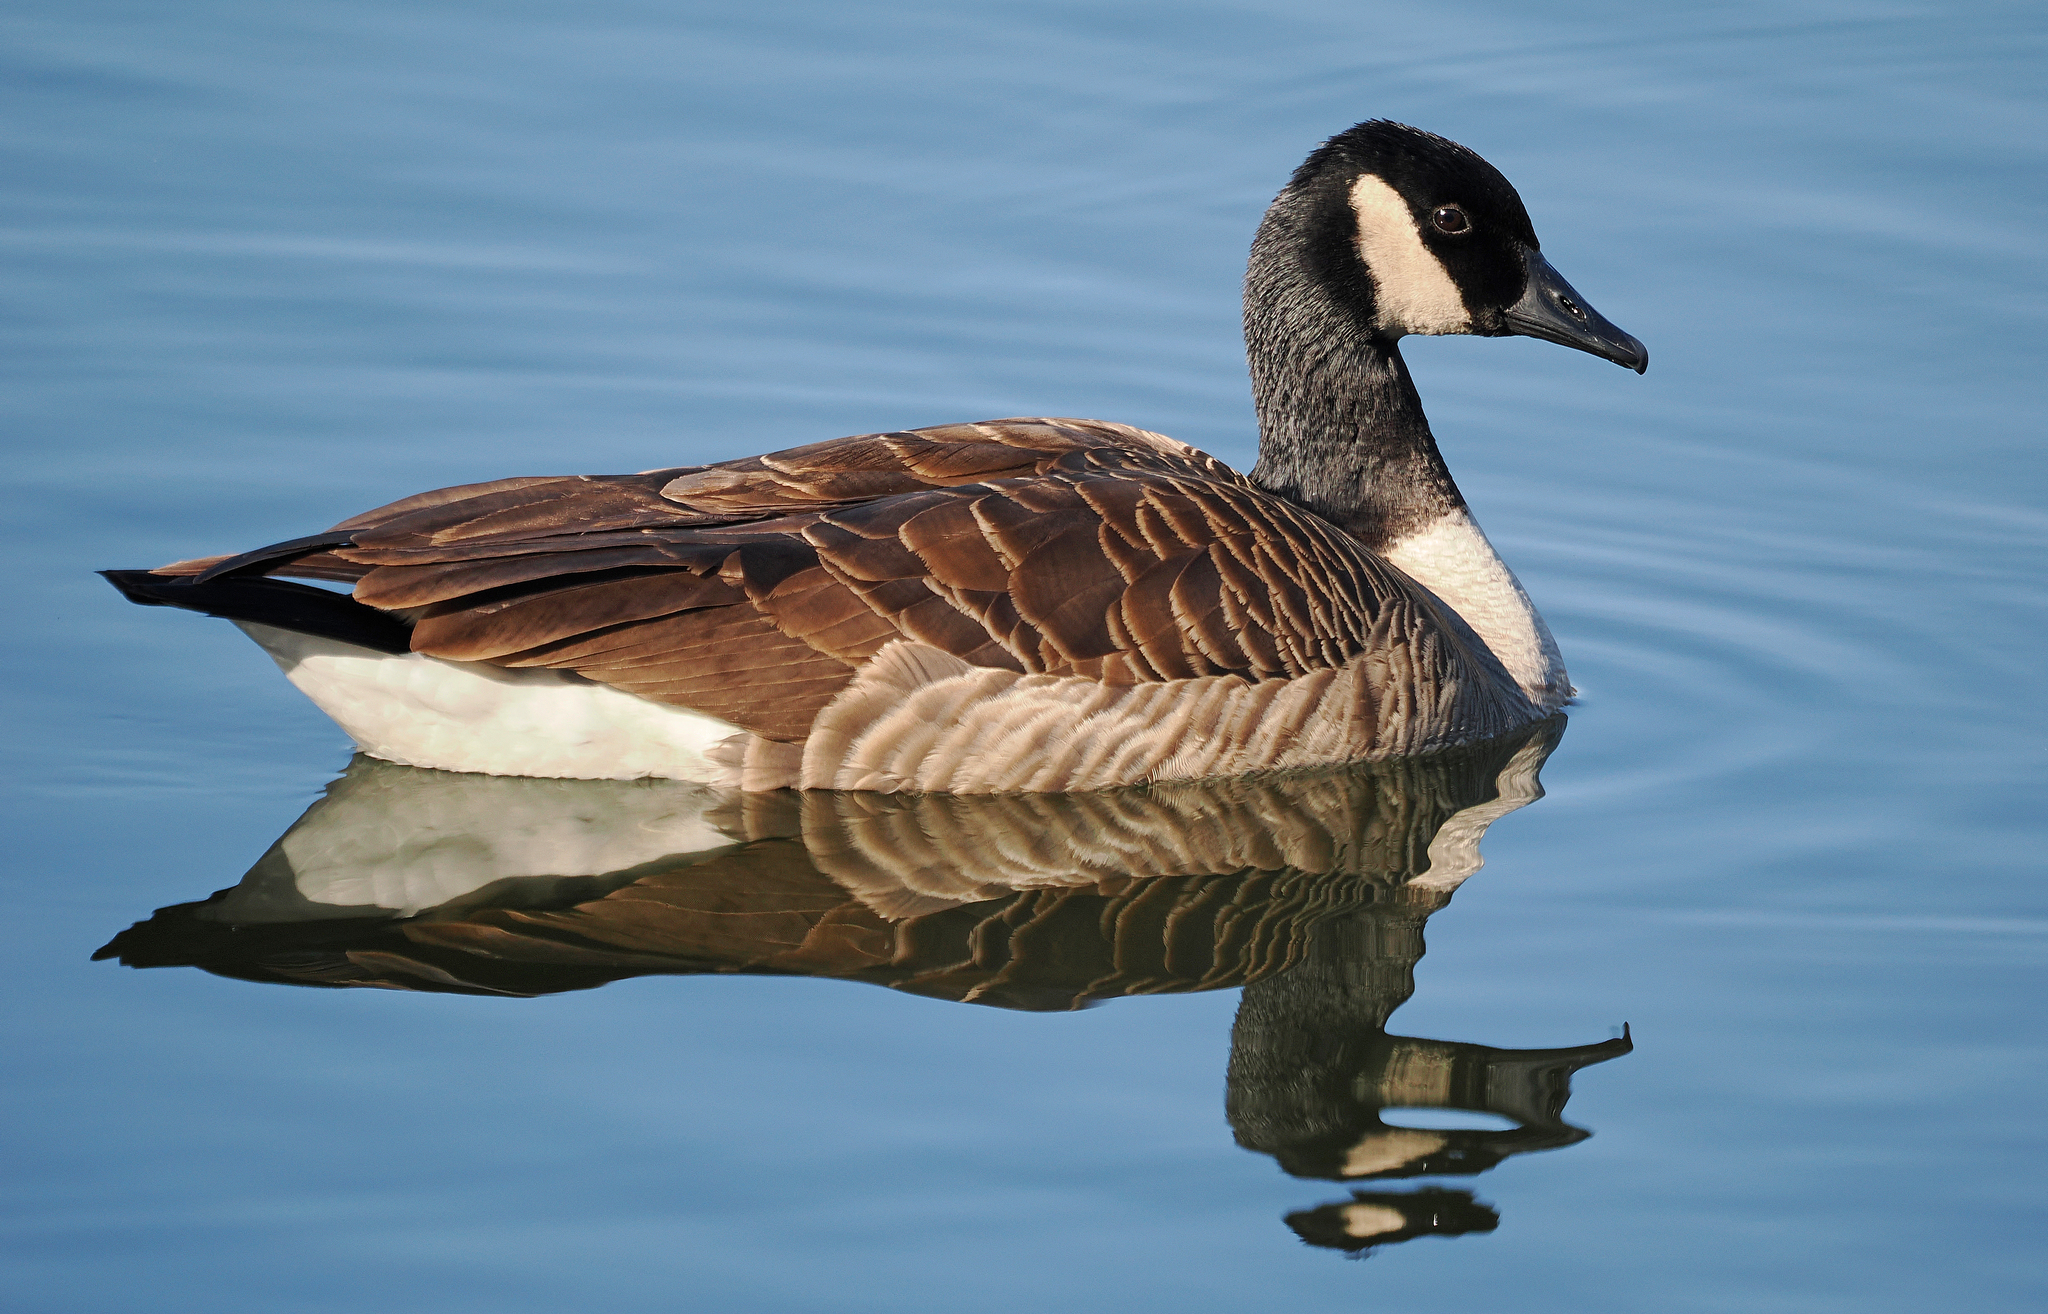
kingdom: Animalia
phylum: Chordata
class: Aves
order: Anseriformes
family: Anatidae
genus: Branta
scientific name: Branta canadensis
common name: Canada goose
